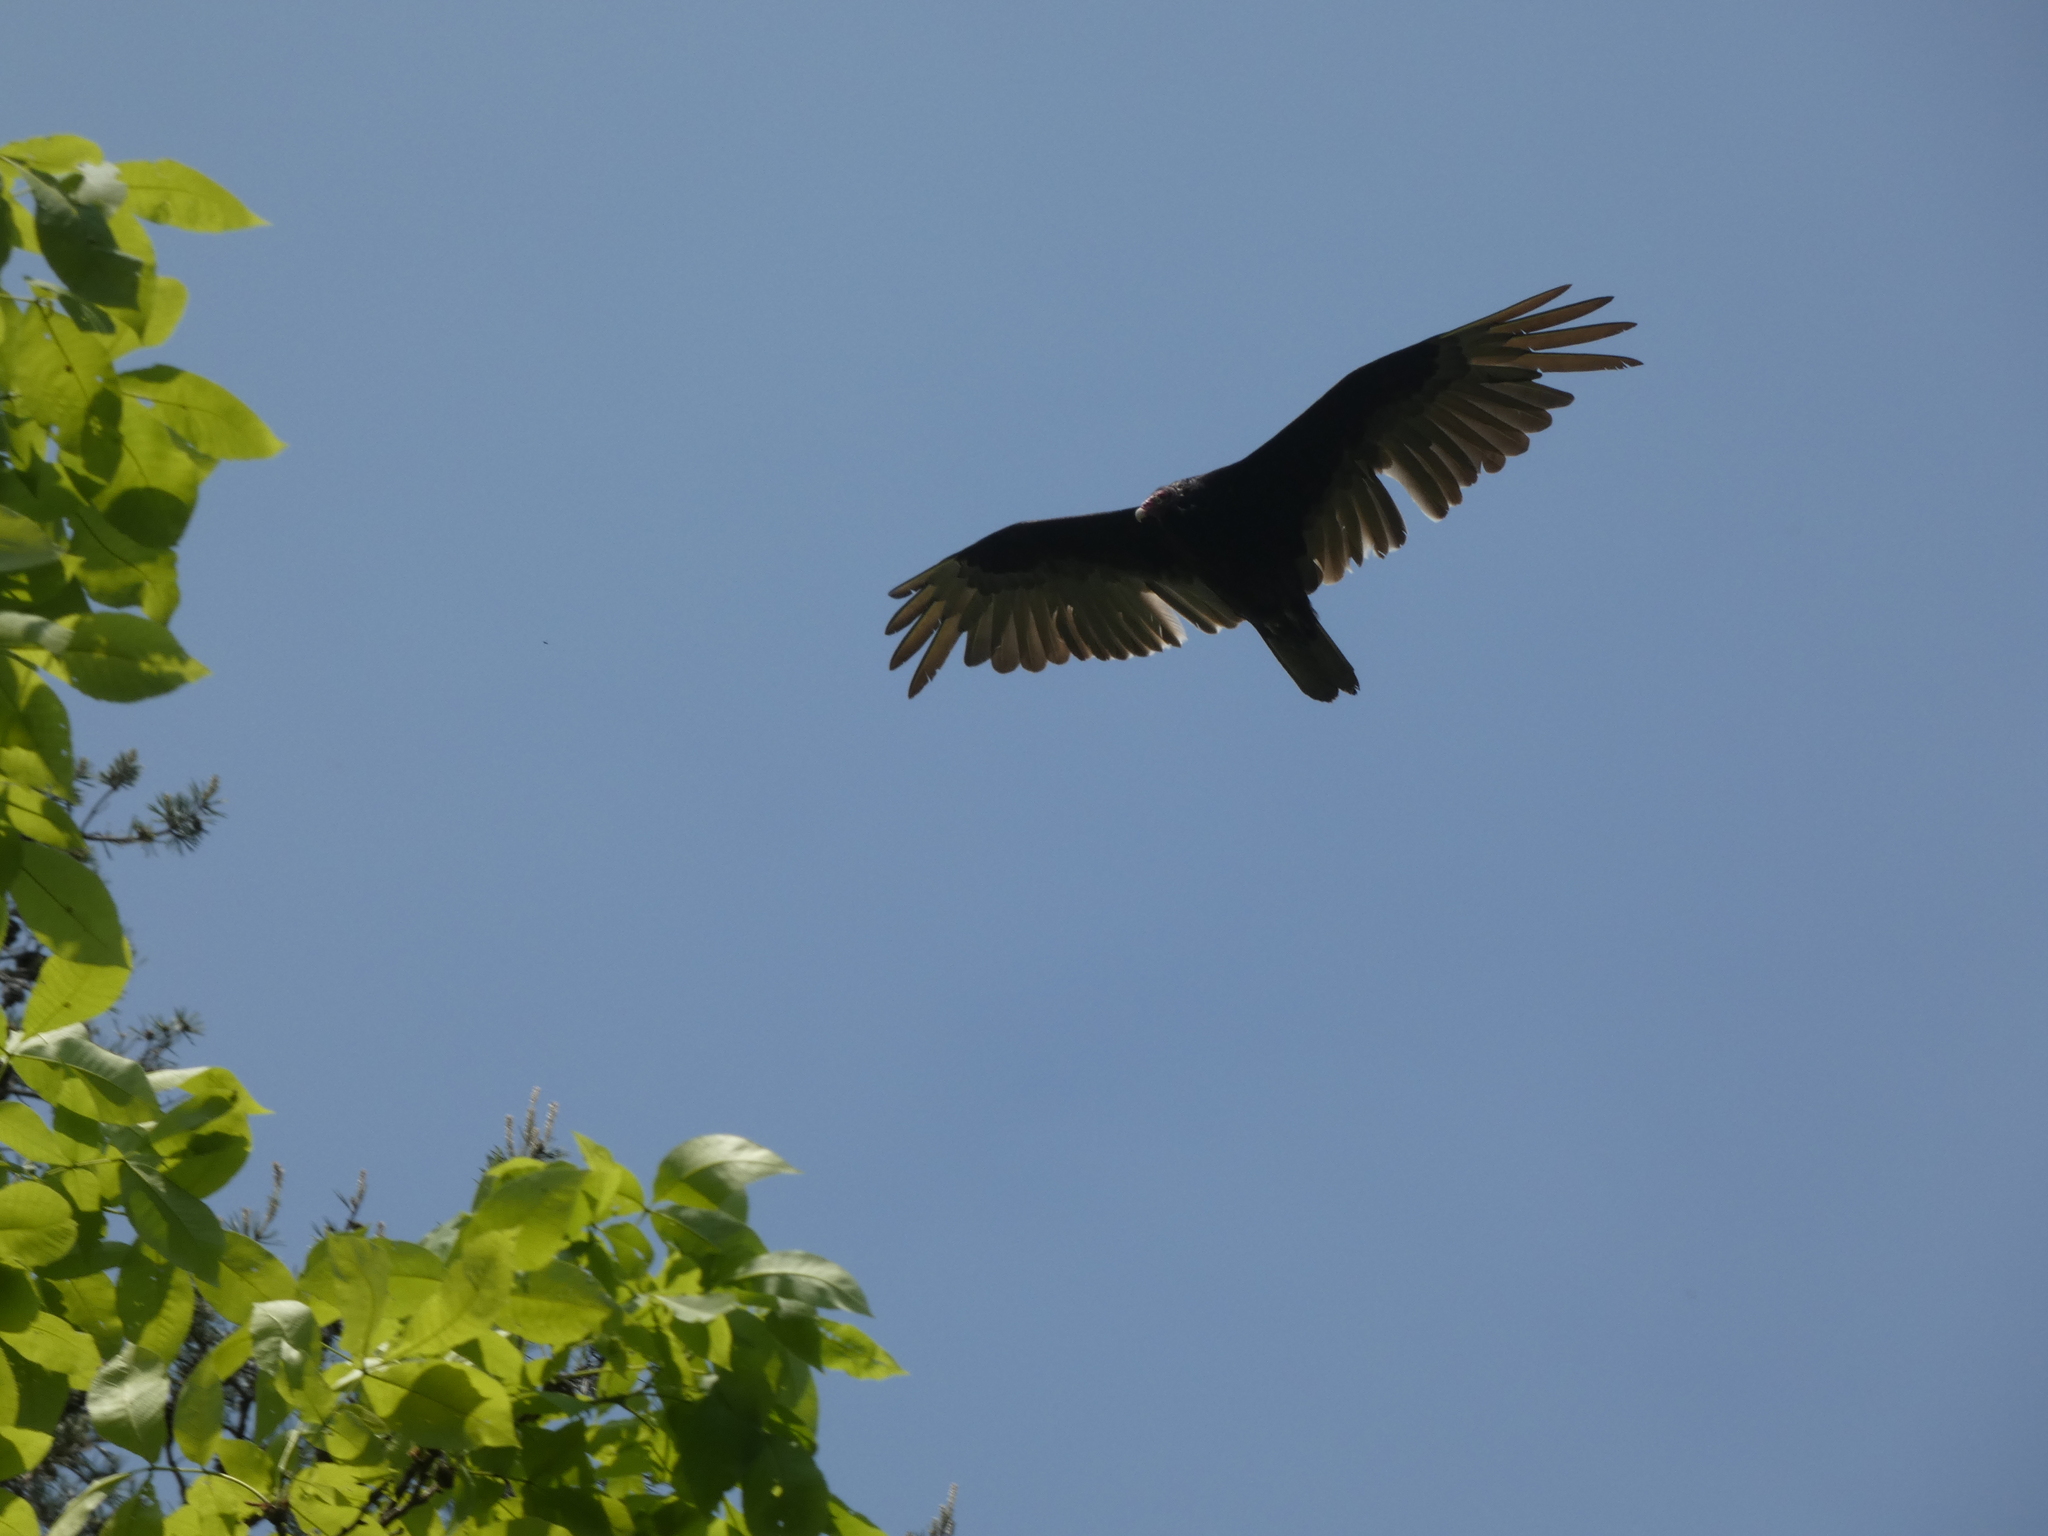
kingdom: Animalia
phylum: Chordata
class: Aves
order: Accipitriformes
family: Cathartidae
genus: Cathartes
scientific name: Cathartes aura
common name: Turkey vulture
